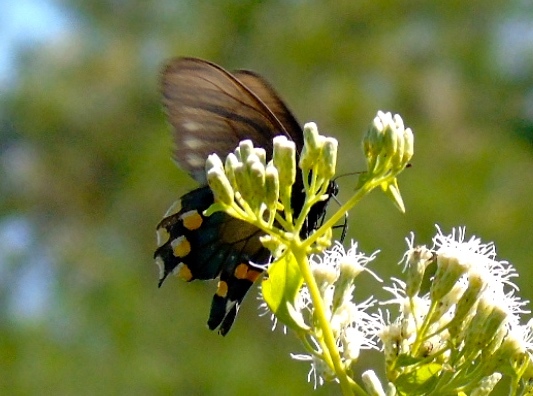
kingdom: Animalia
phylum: Arthropoda
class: Insecta
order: Lepidoptera
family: Papilionidae
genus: Battus
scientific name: Battus philenor
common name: Pipevine swallowtail
